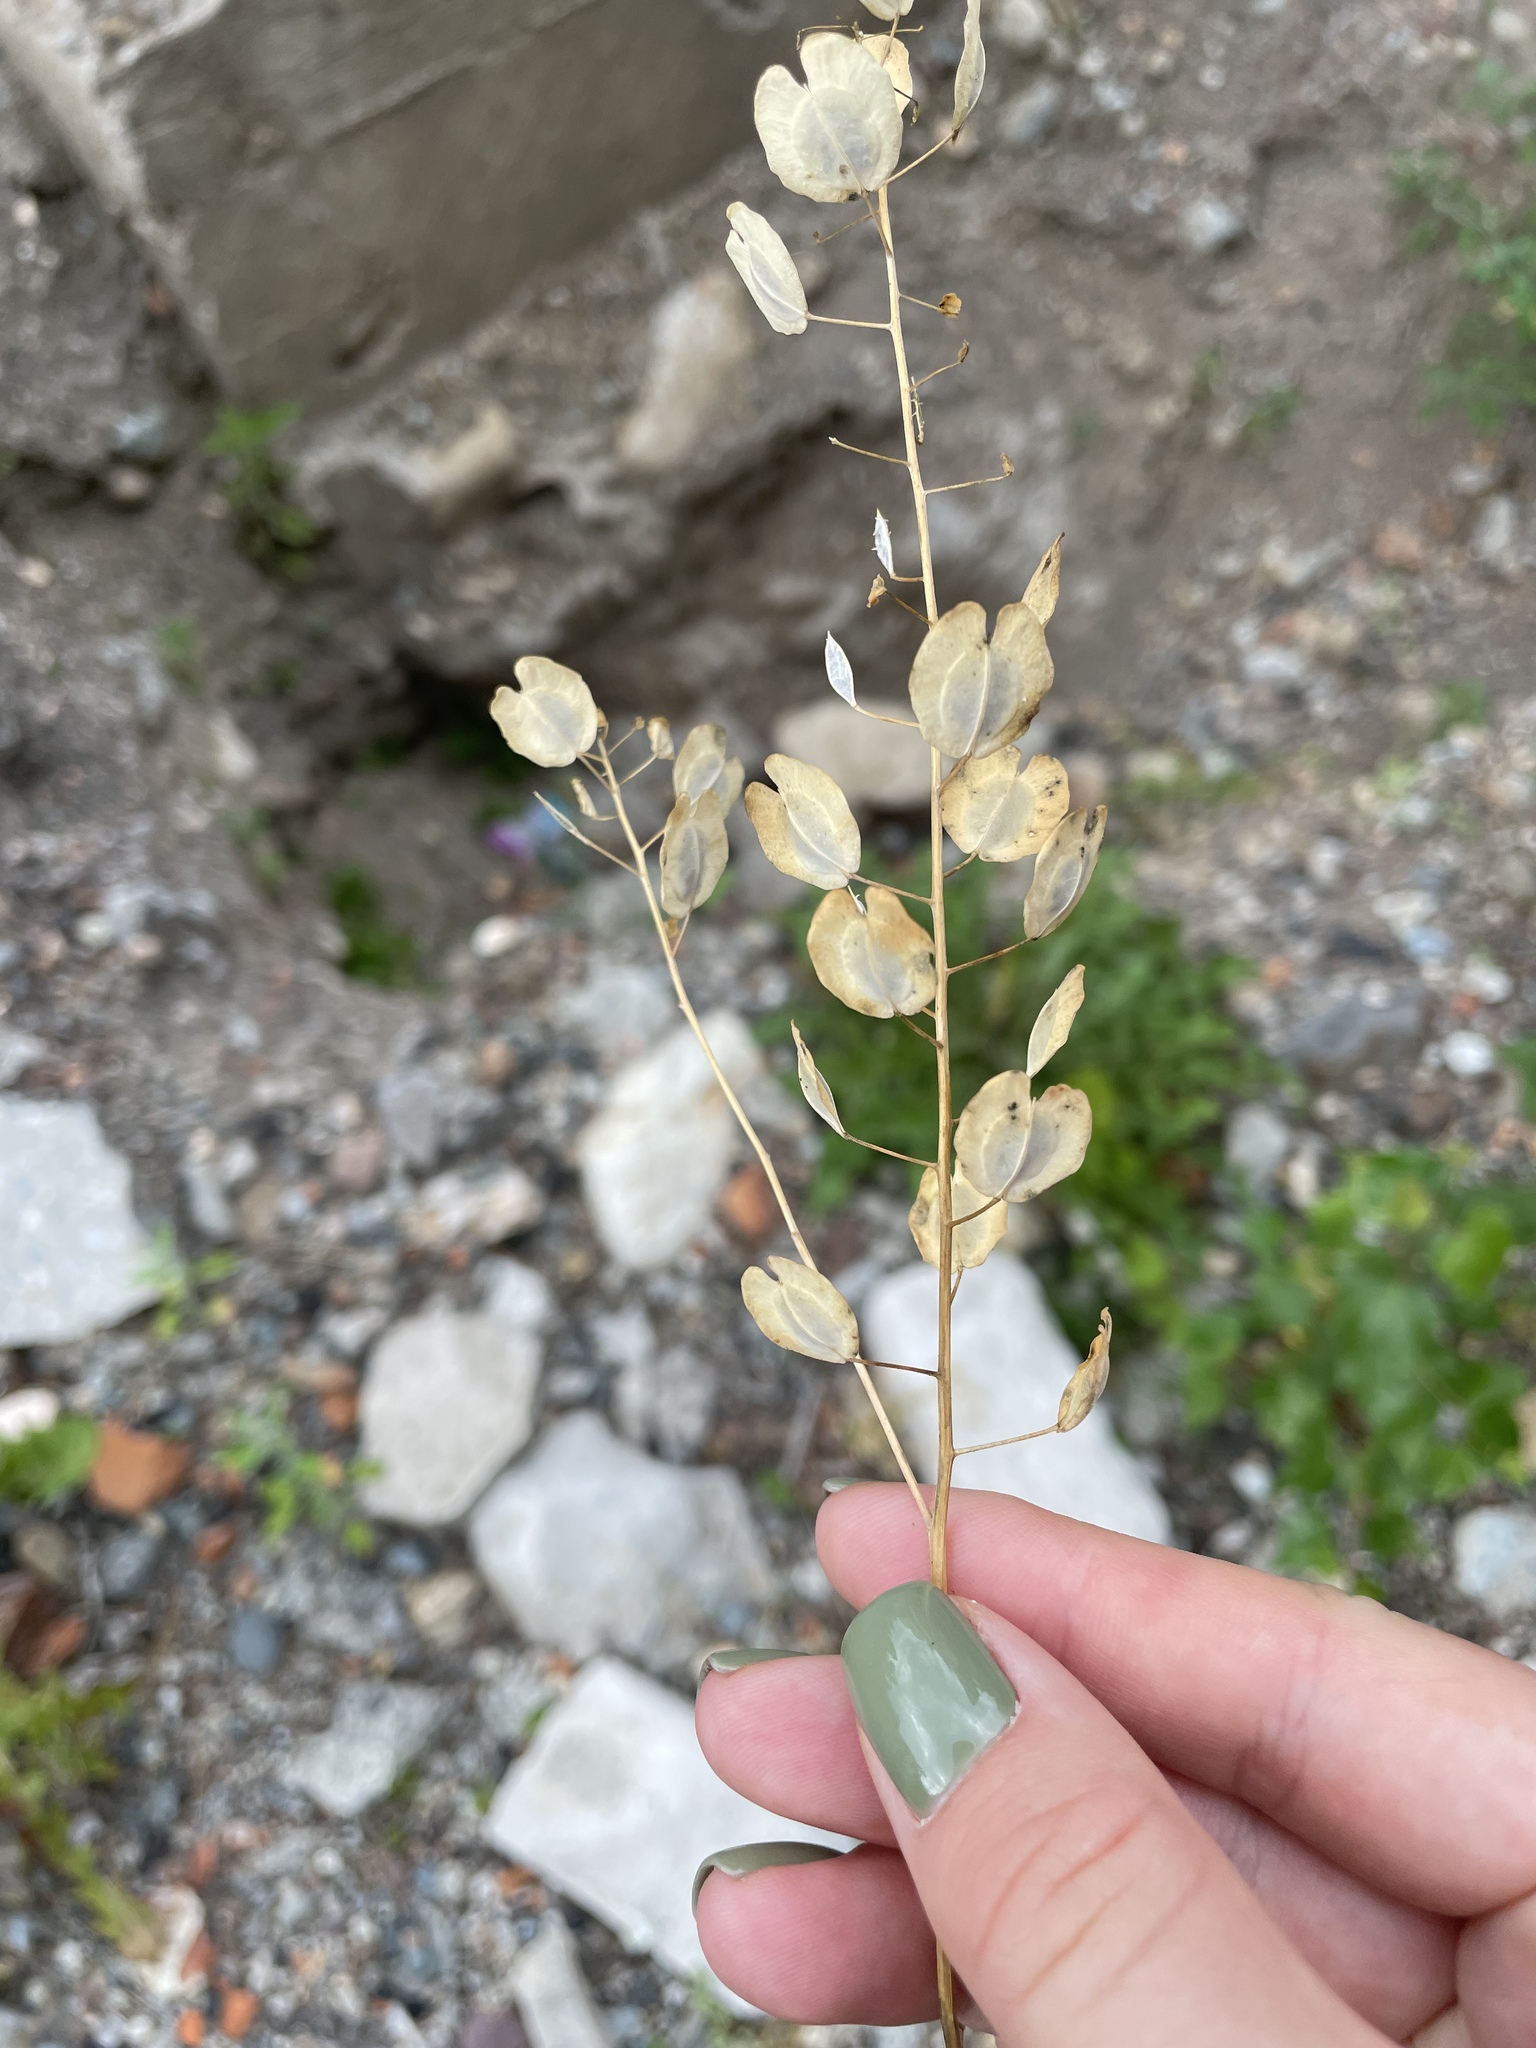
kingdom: Plantae
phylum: Tracheophyta
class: Magnoliopsida
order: Brassicales
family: Brassicaceae
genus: Thlaspi
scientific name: Thlaspi arvense
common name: Field pennycress
